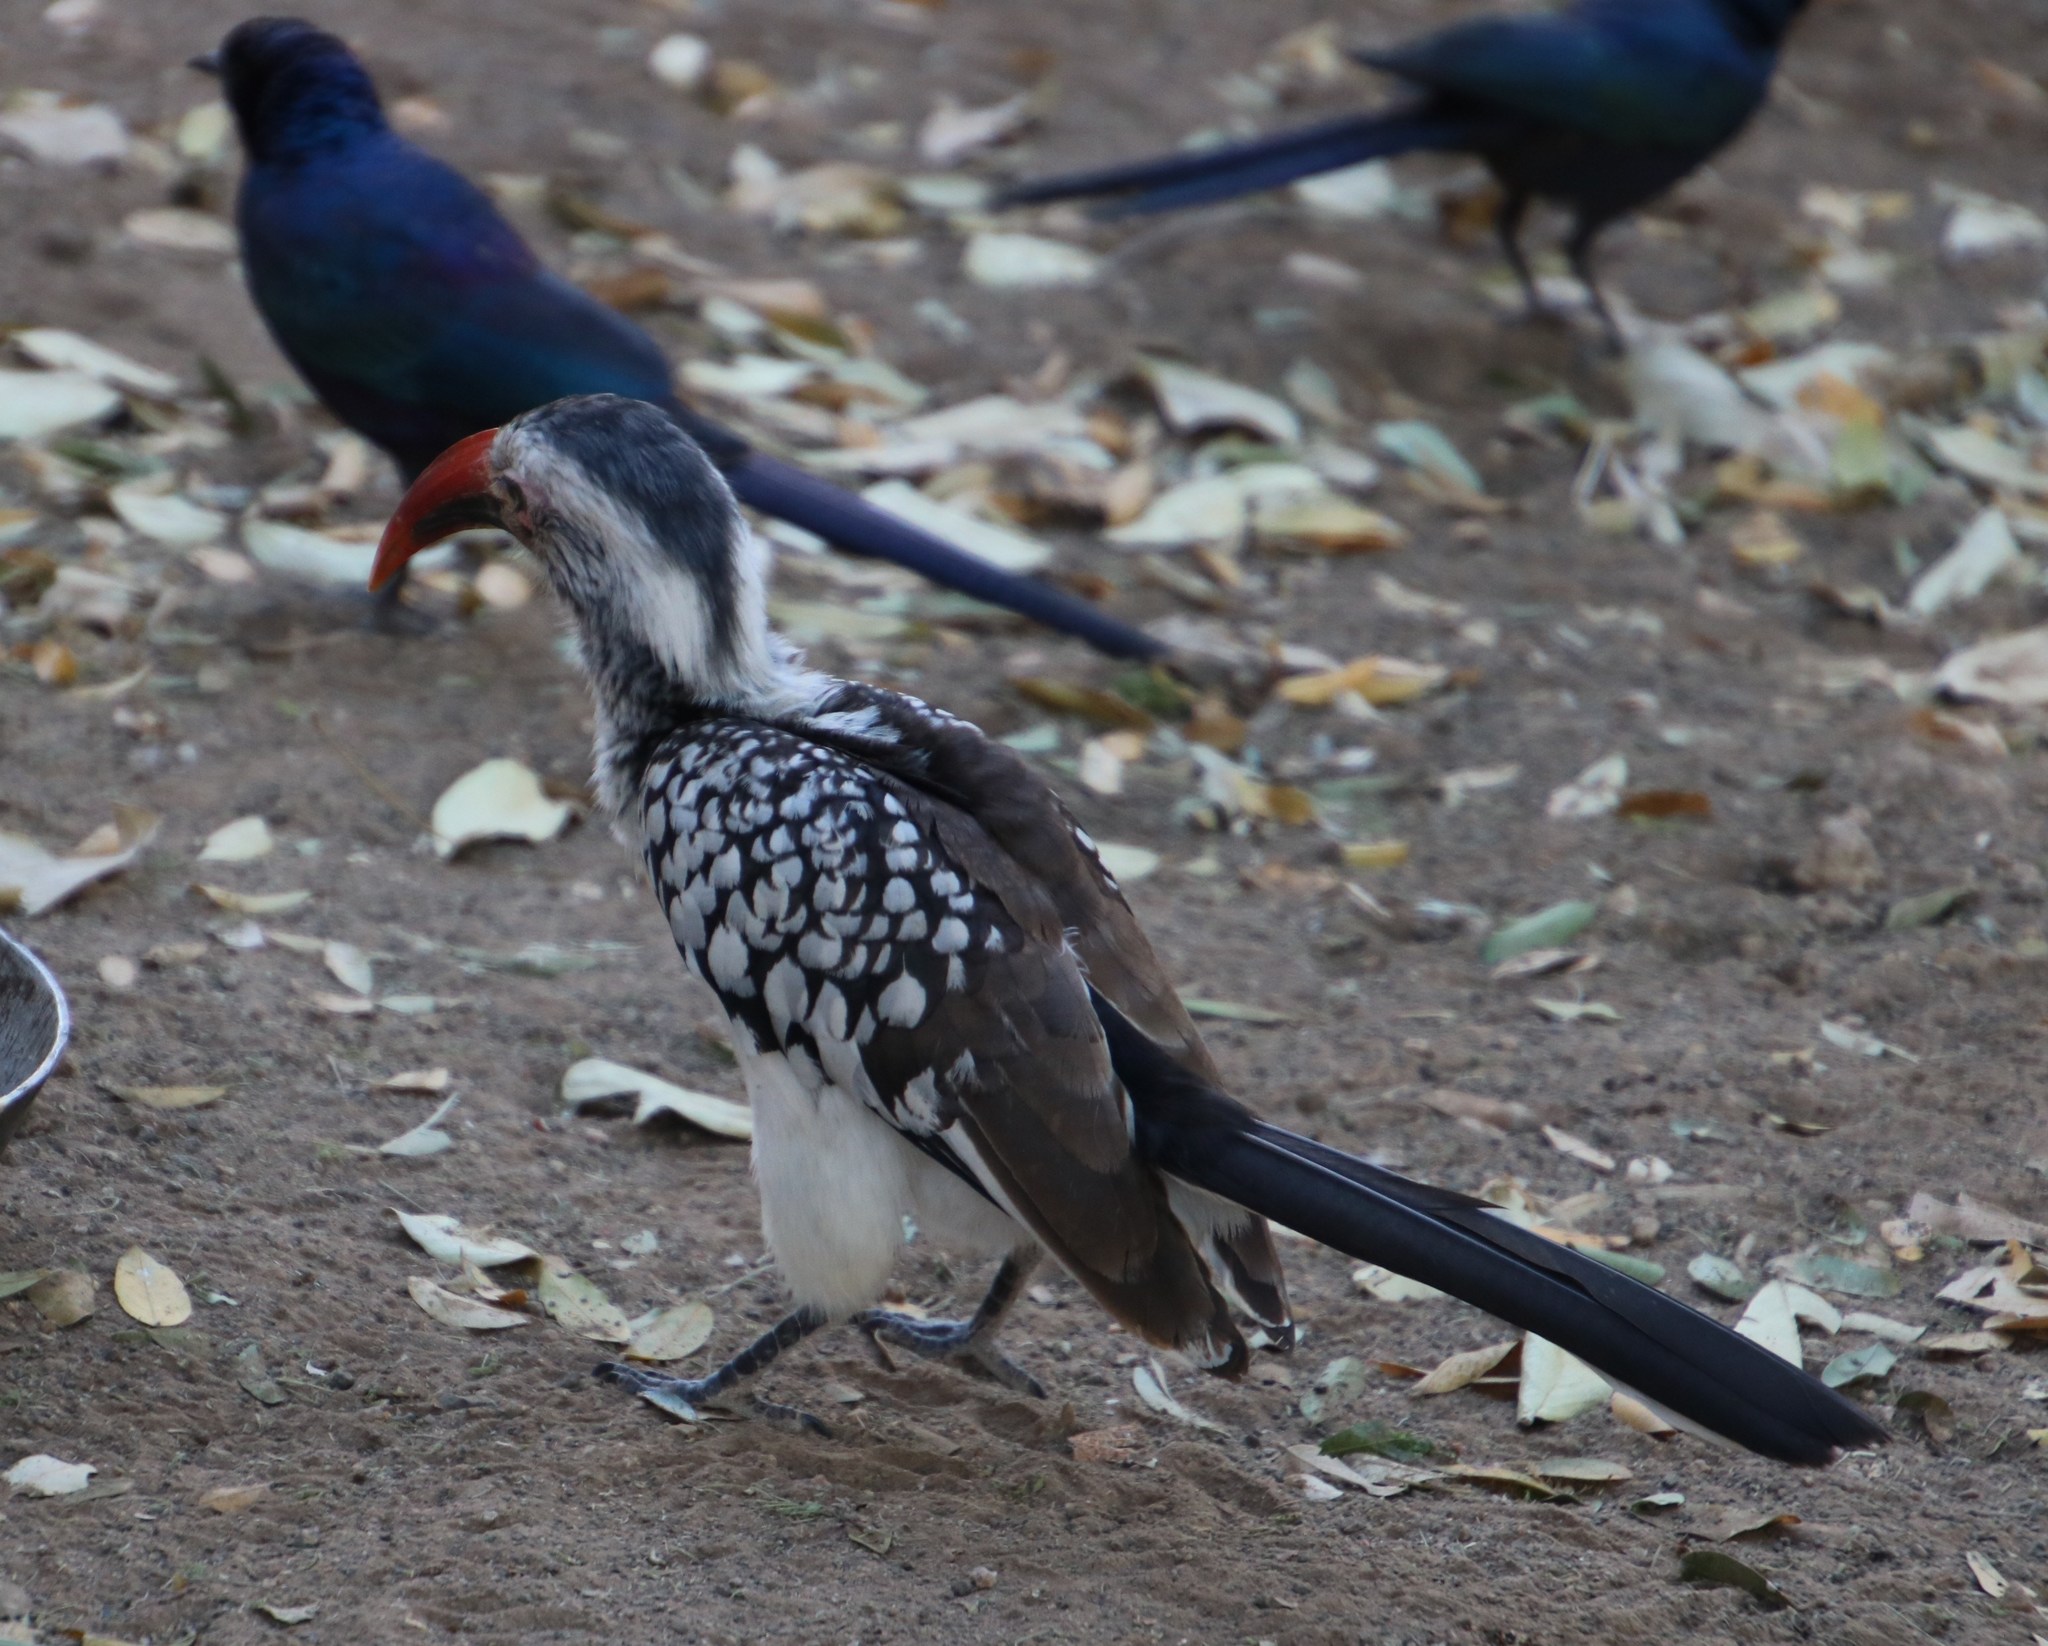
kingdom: Animalia
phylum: Chordata
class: Aves
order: Bucerotiformes
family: Bucerotidae
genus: Tockus
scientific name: Tockus rufirostris
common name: Southern red-billed hornbill
